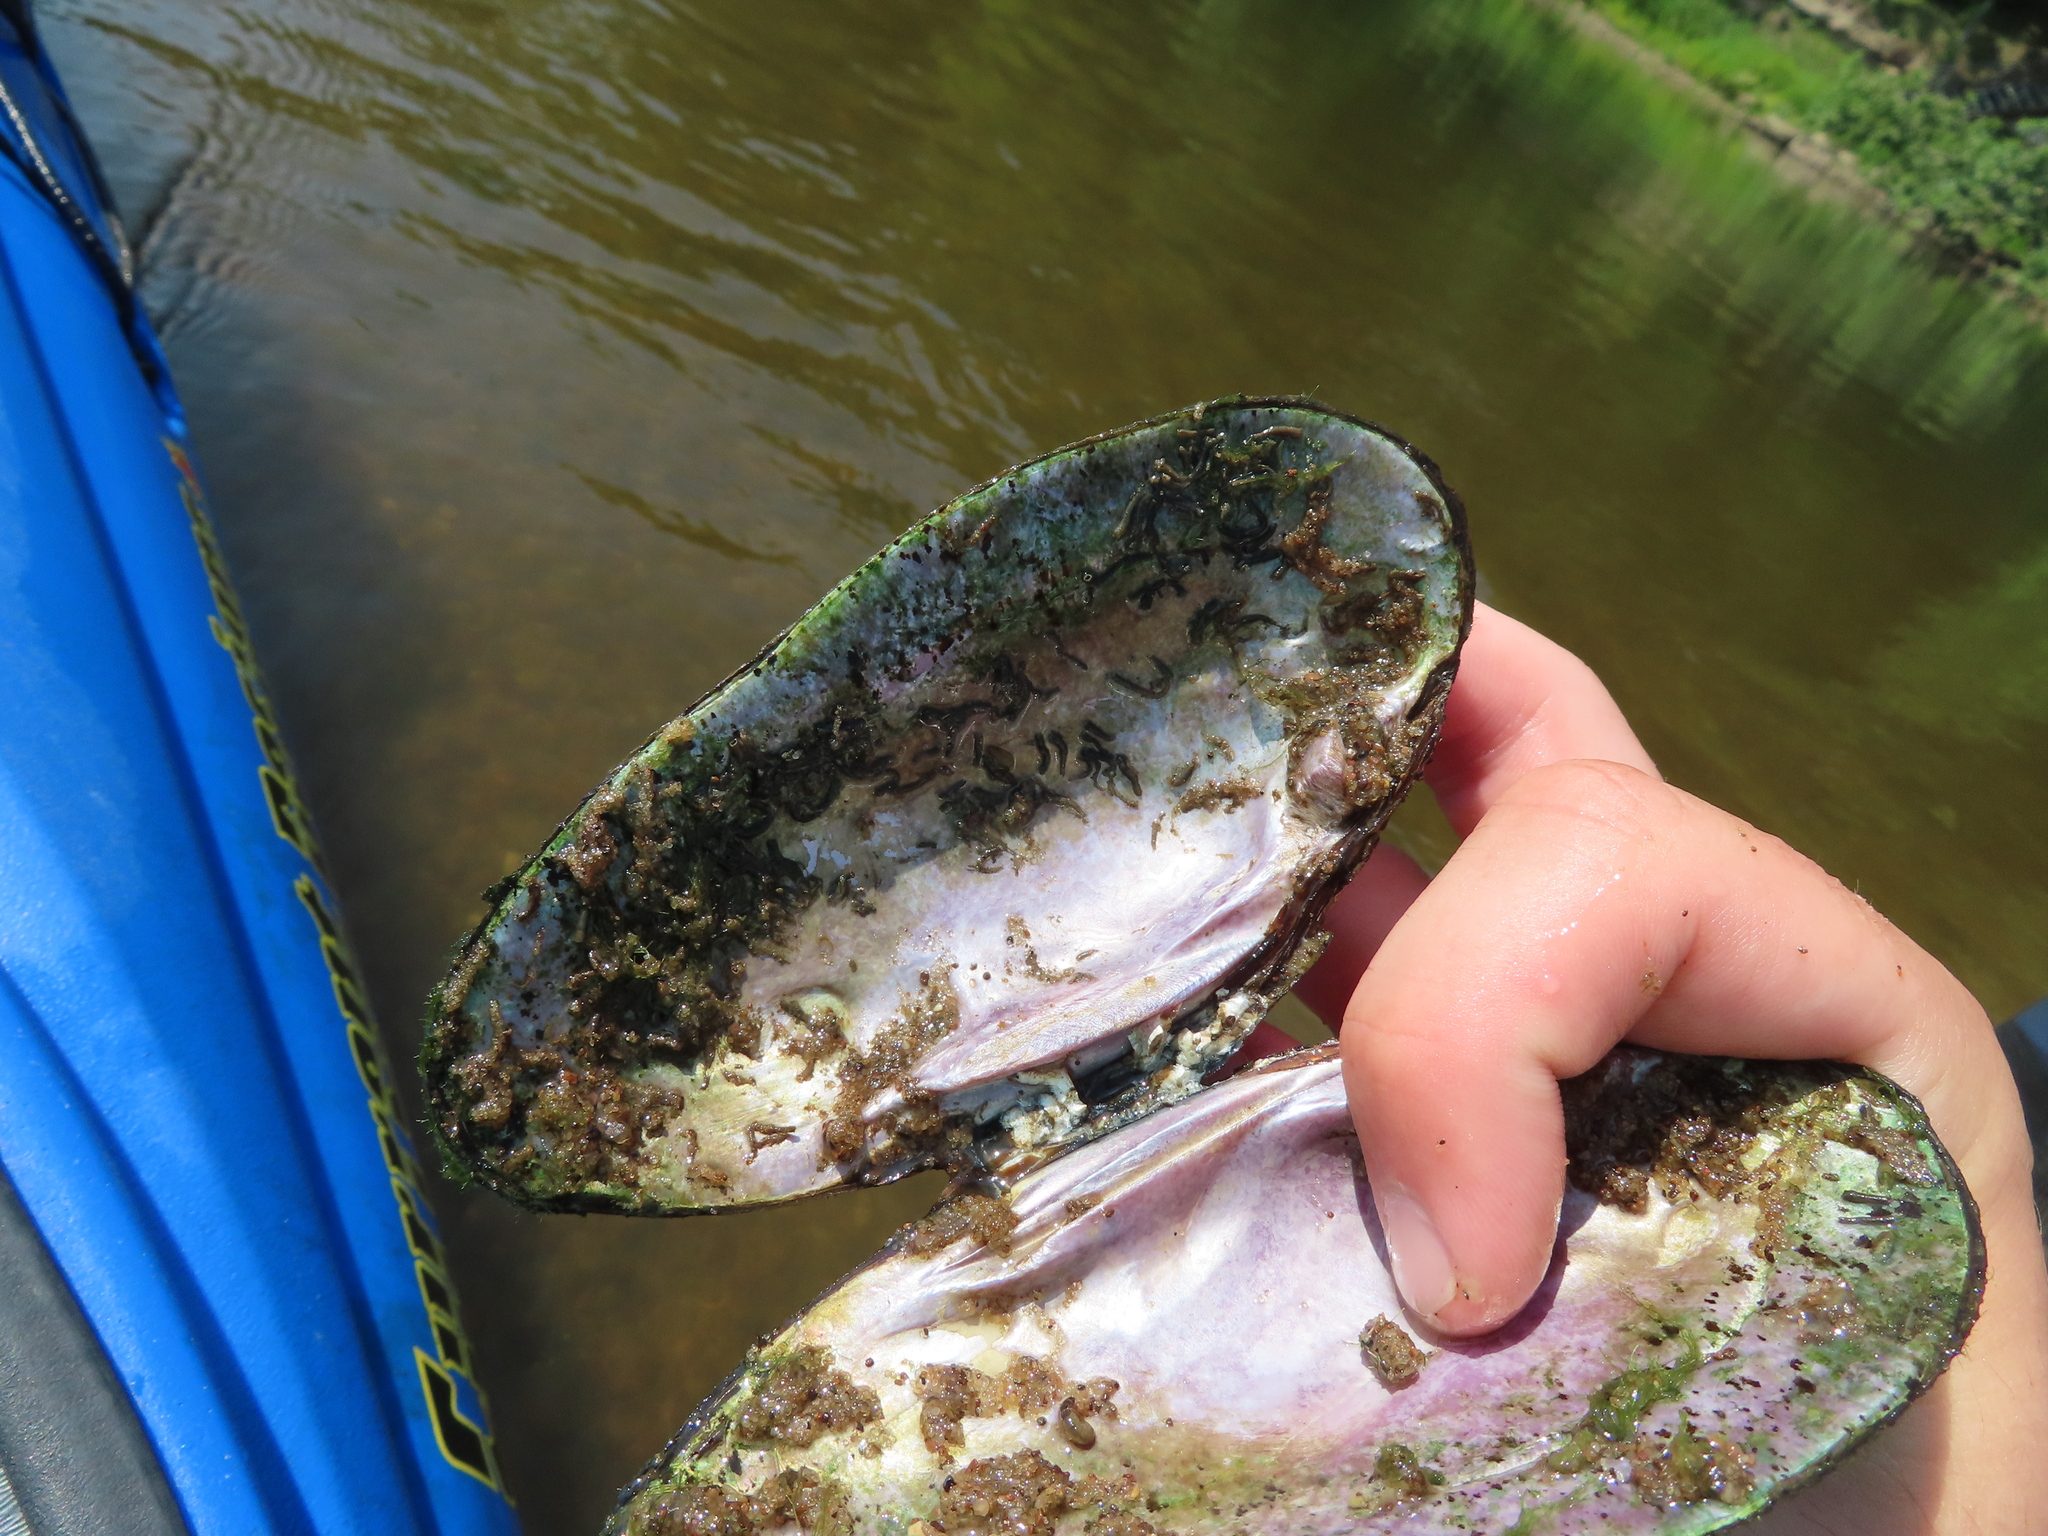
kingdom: Animalia
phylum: Mollusca
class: Bivalvia
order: Unionida
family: Unionidae
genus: Eurynia
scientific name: Eurynia dilatata
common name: Spike
